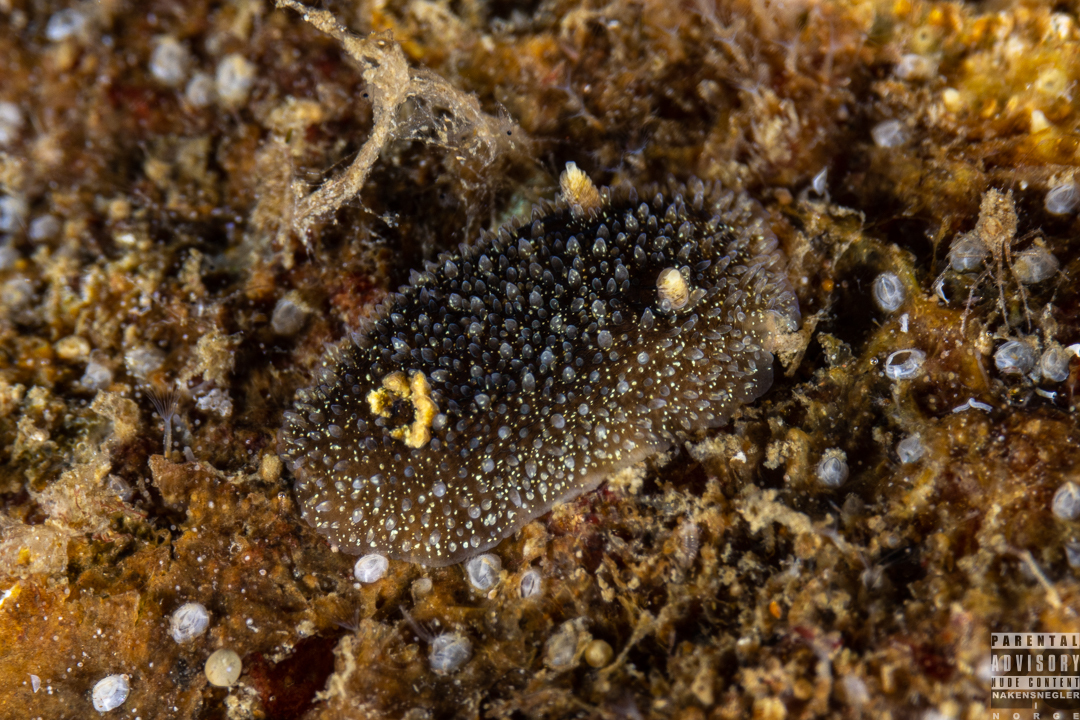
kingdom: Animalia
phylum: Mollusca
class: Gastropoda
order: Nudibranchia
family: Onchidorididae
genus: Acanthodoris
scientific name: Acanthodoris pilosa
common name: Hairy spiny doris
